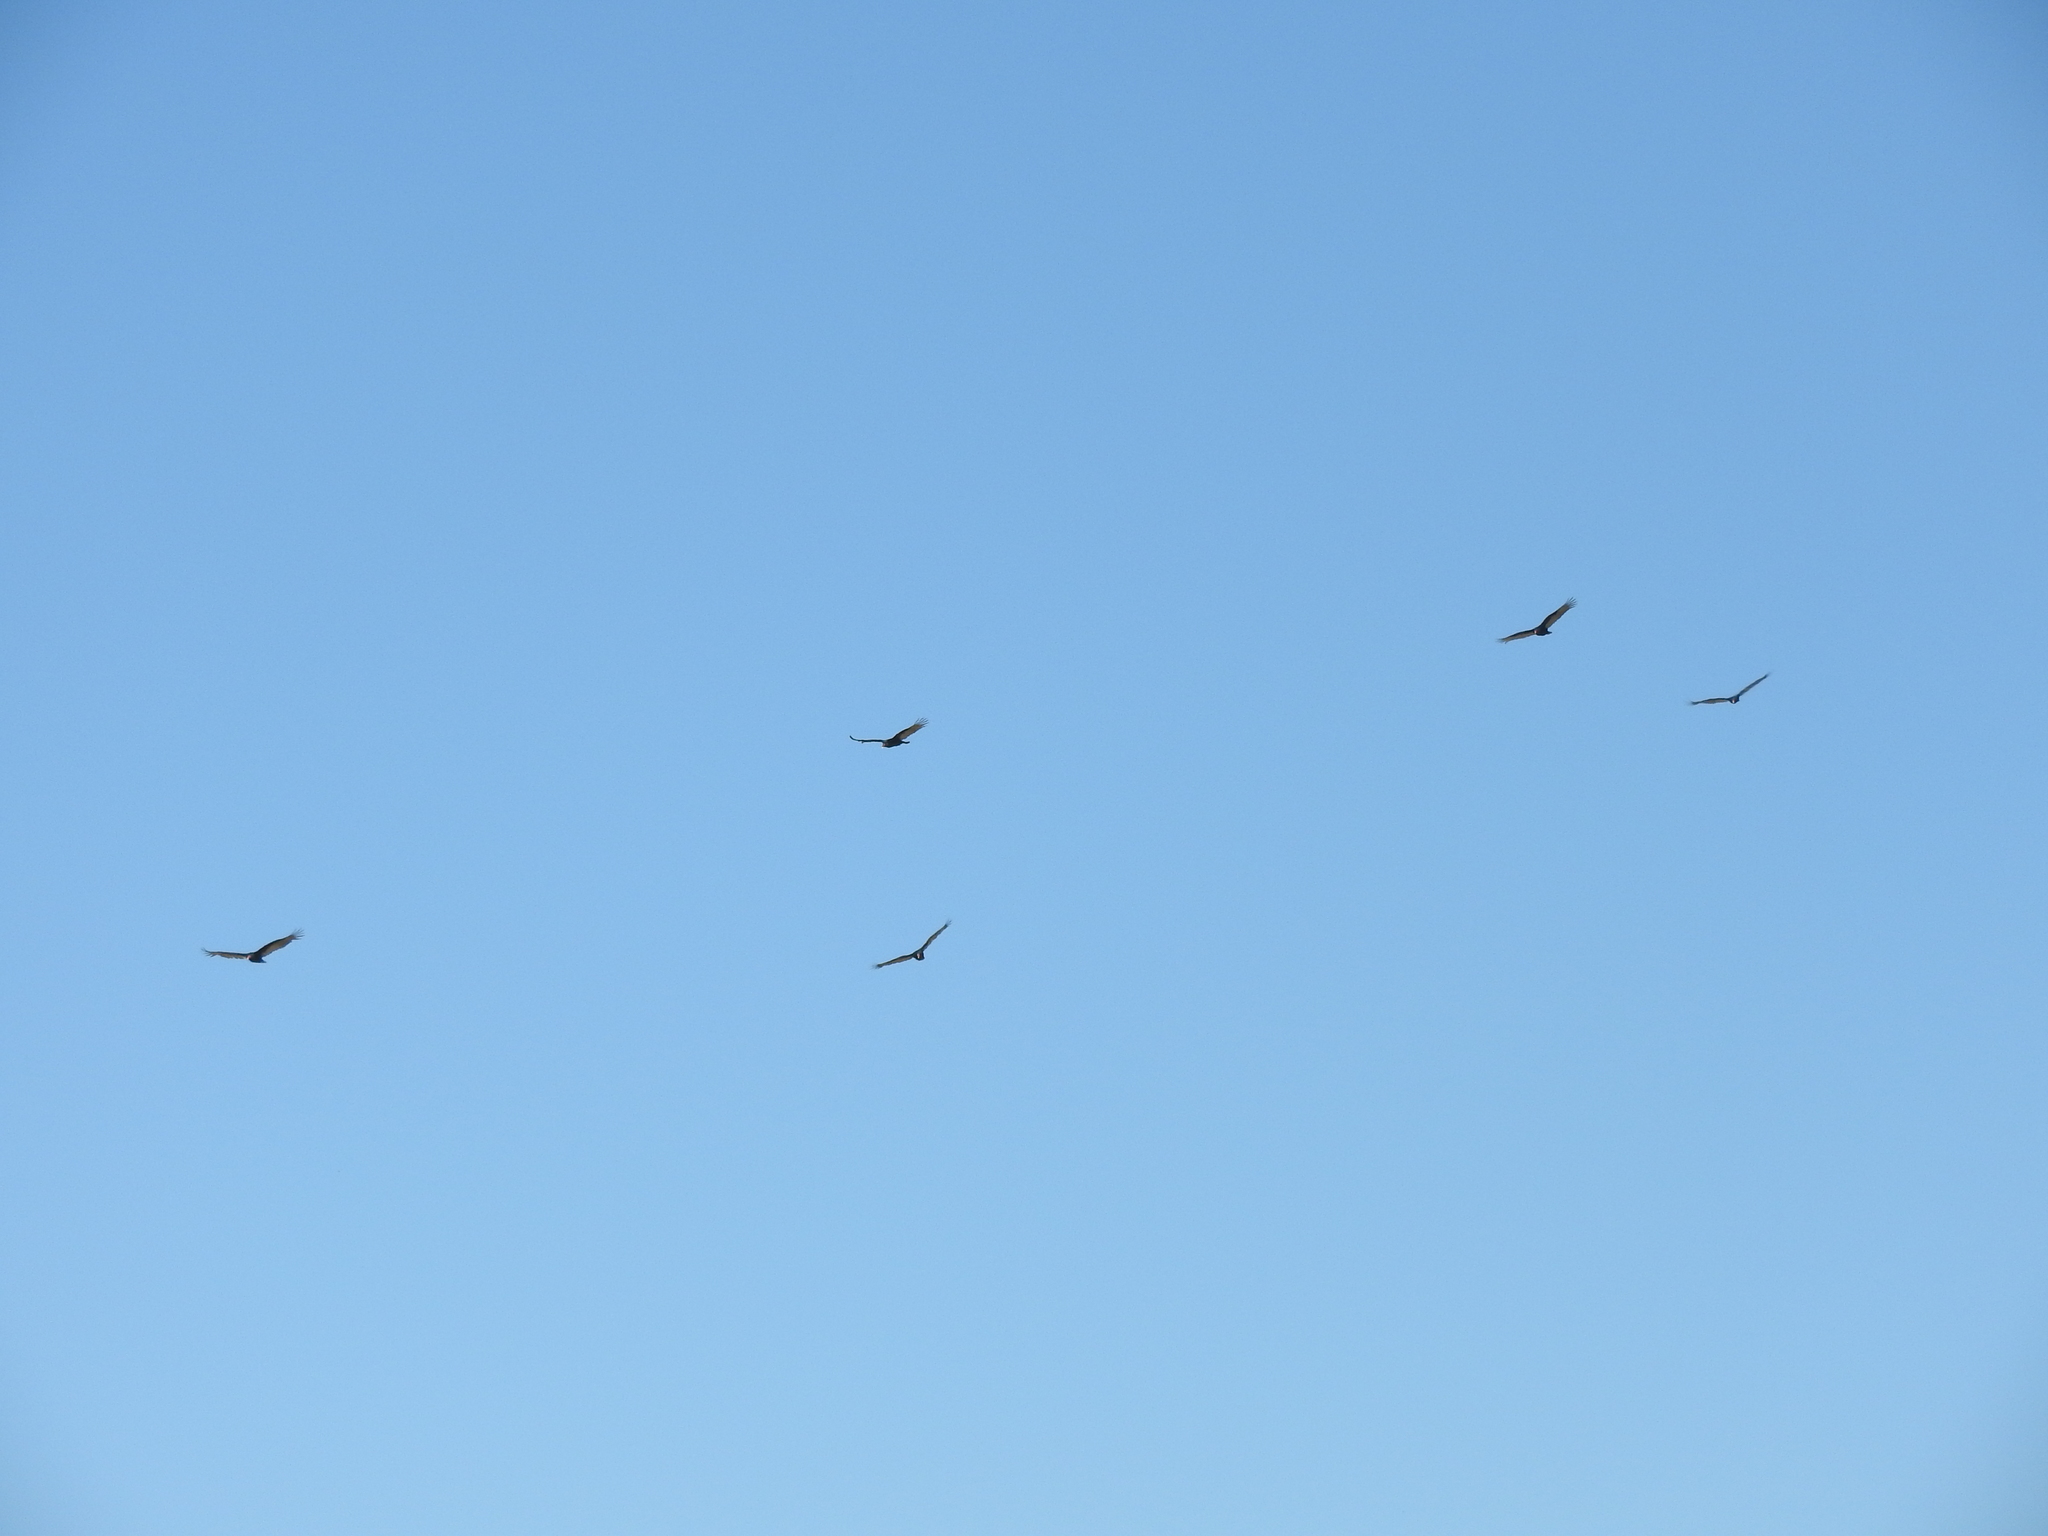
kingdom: Animalia
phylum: Chordata
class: Aves
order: Accipitriformes
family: Cathartidae
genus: Cathartes
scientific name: Cathartes aura
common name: Turkey vulture
